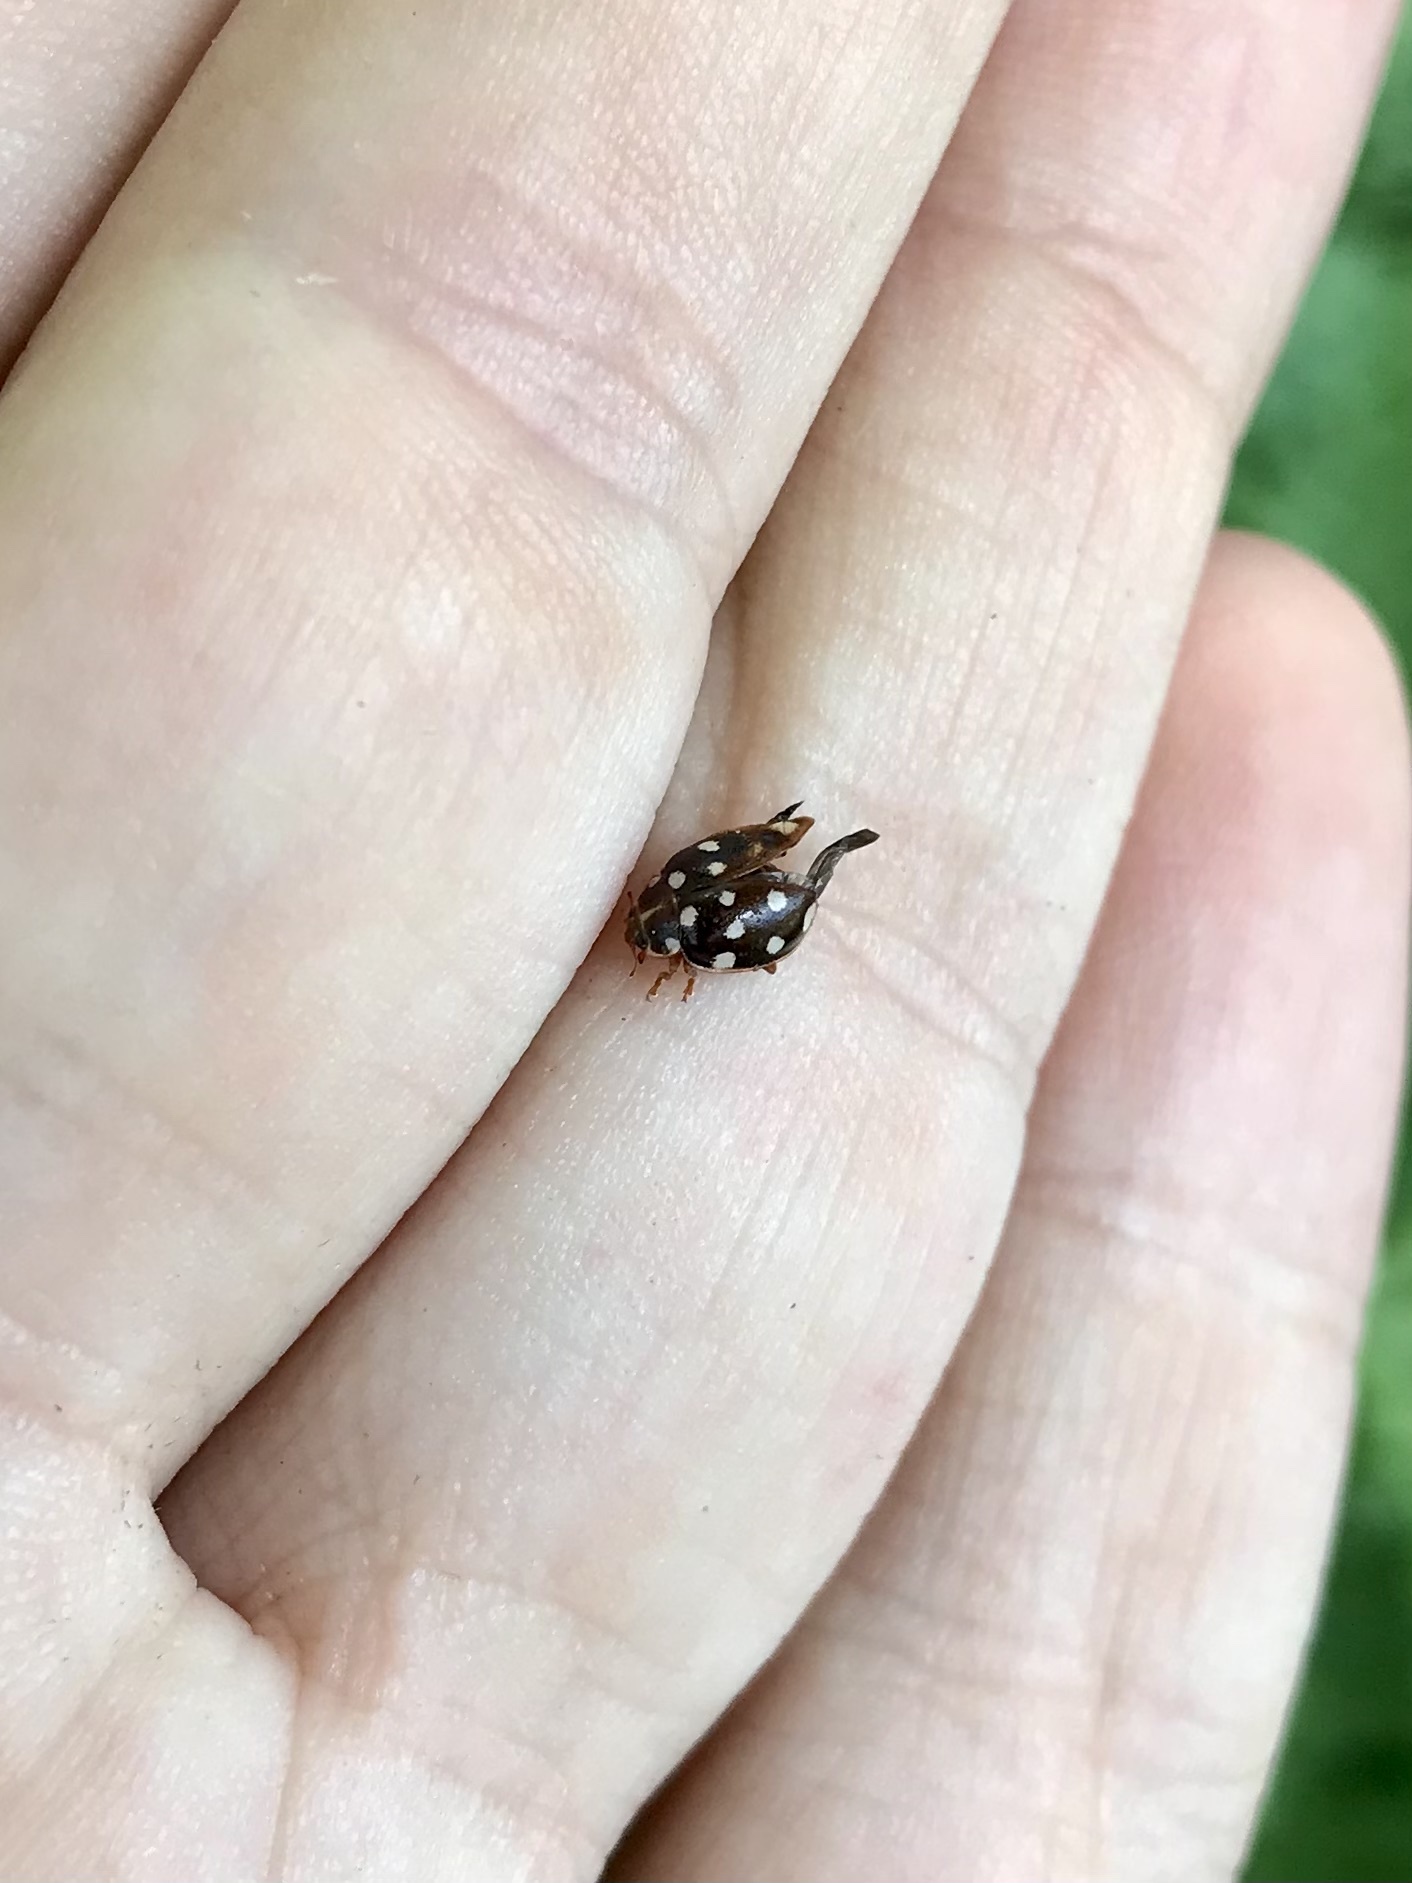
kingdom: Animalia
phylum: Arthropoda
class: Insecta
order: Coleoptera
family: Coccinellidae
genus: Calvia
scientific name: Calvia quatuordecimguttata
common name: Cream-spot ladybird
